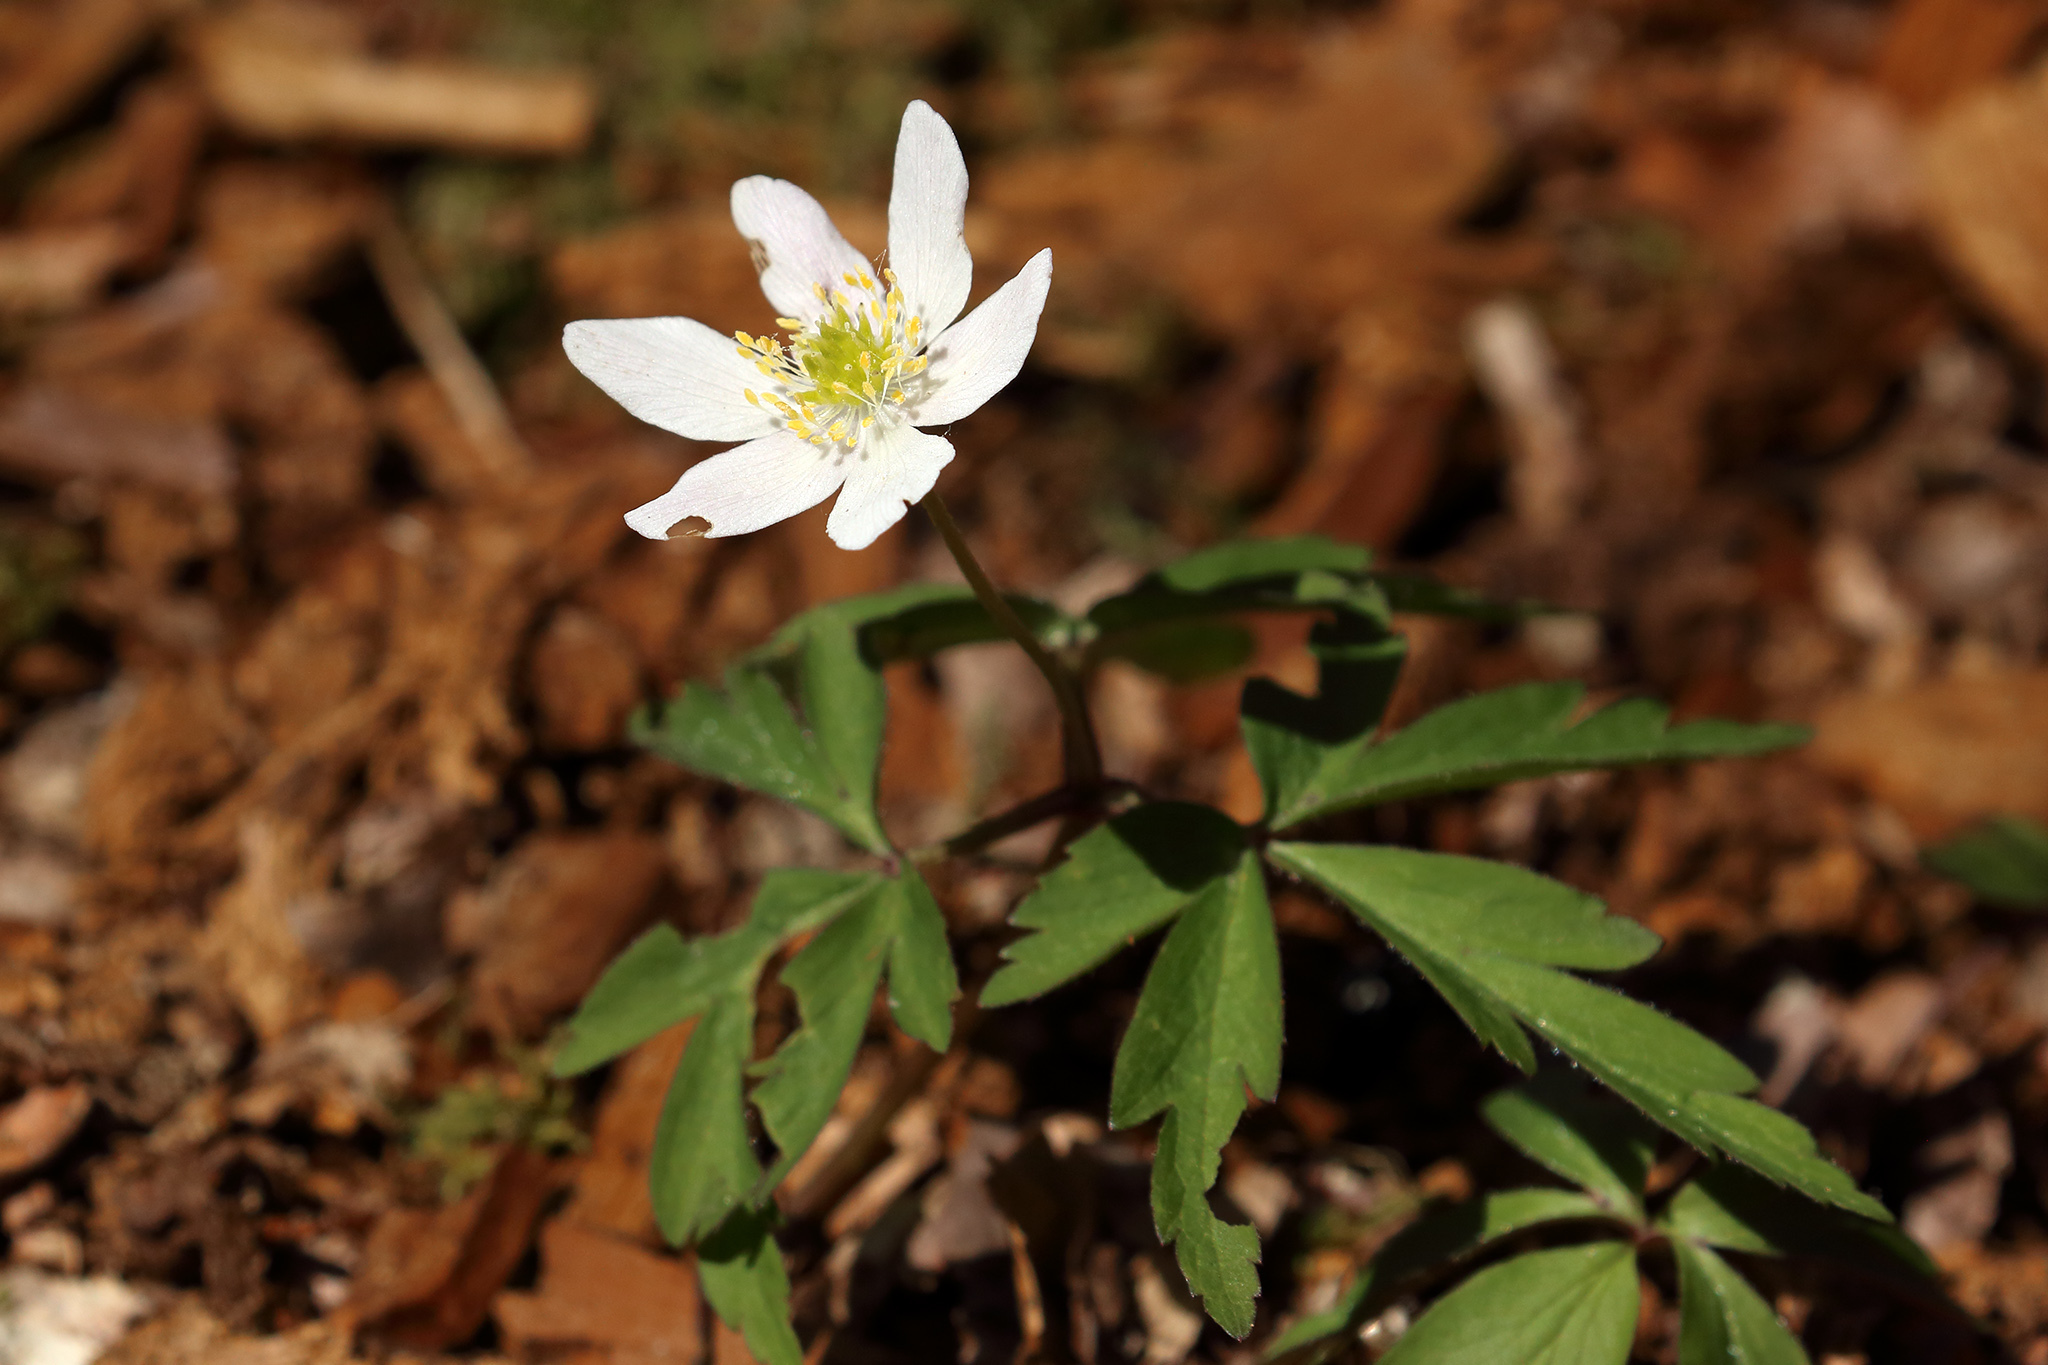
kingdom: Plantae
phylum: Tracheophyta
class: Magnoliopsida
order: Ranunculales
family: Ranunculaceae
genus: Anemone
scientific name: Anemone nemorosa
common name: Wood anemone
